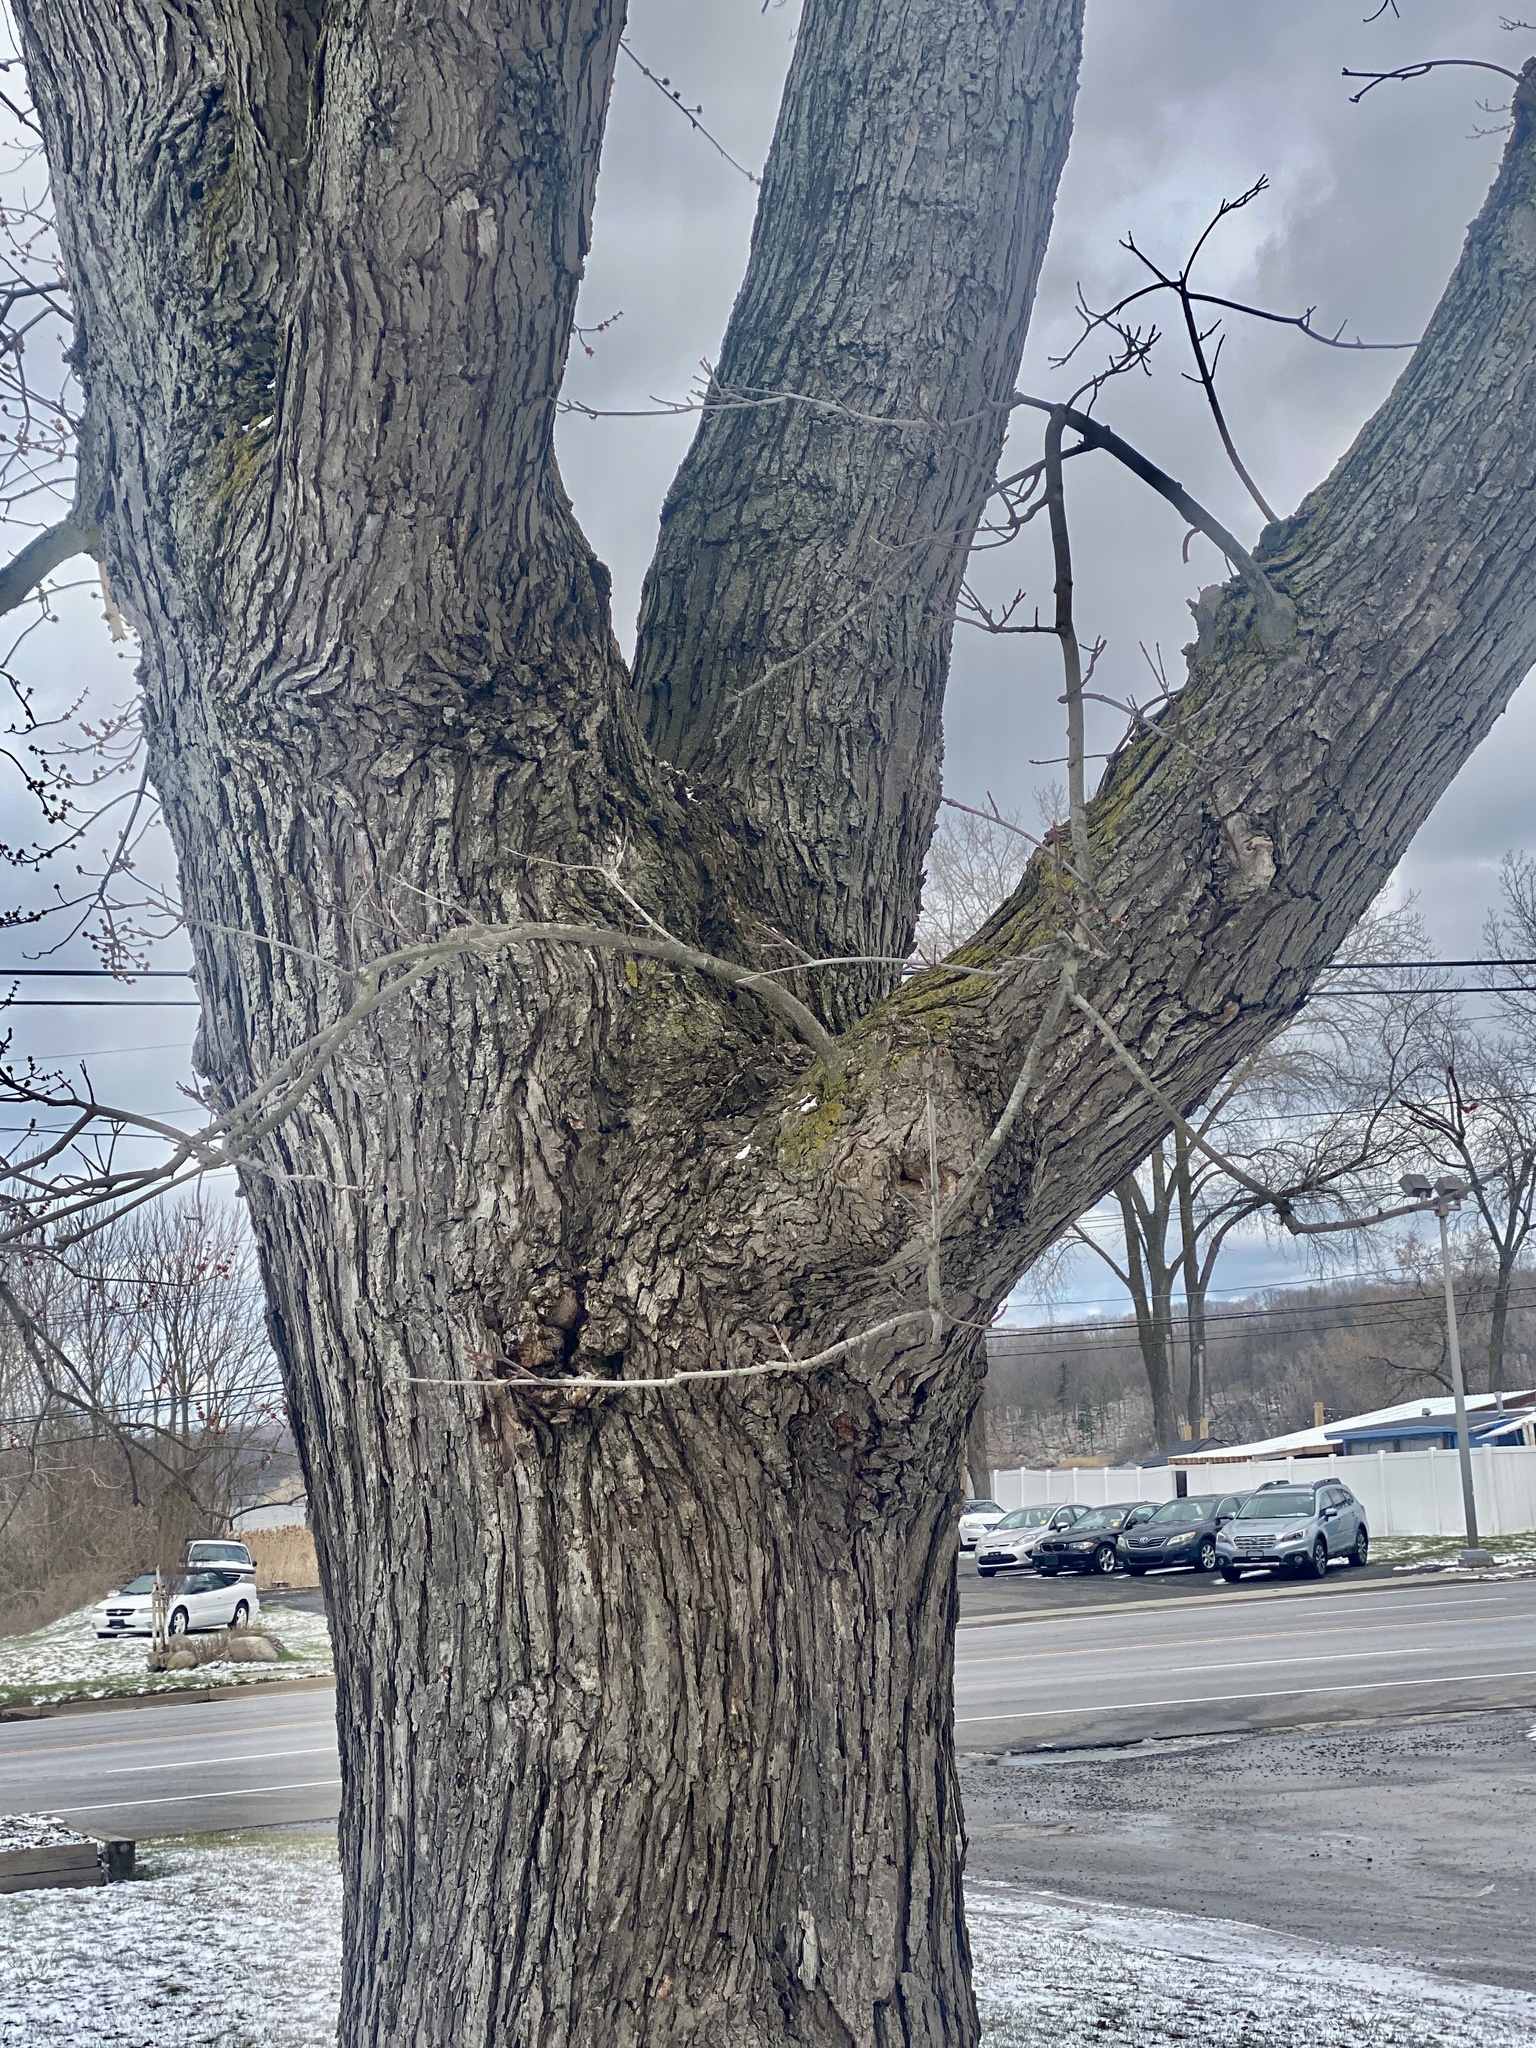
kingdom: Plantae
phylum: Tracheophyta
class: Magnoliopsida
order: Sapindales
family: Sapindaceae
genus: Acer
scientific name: Acer saccharinum
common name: Silver maple
